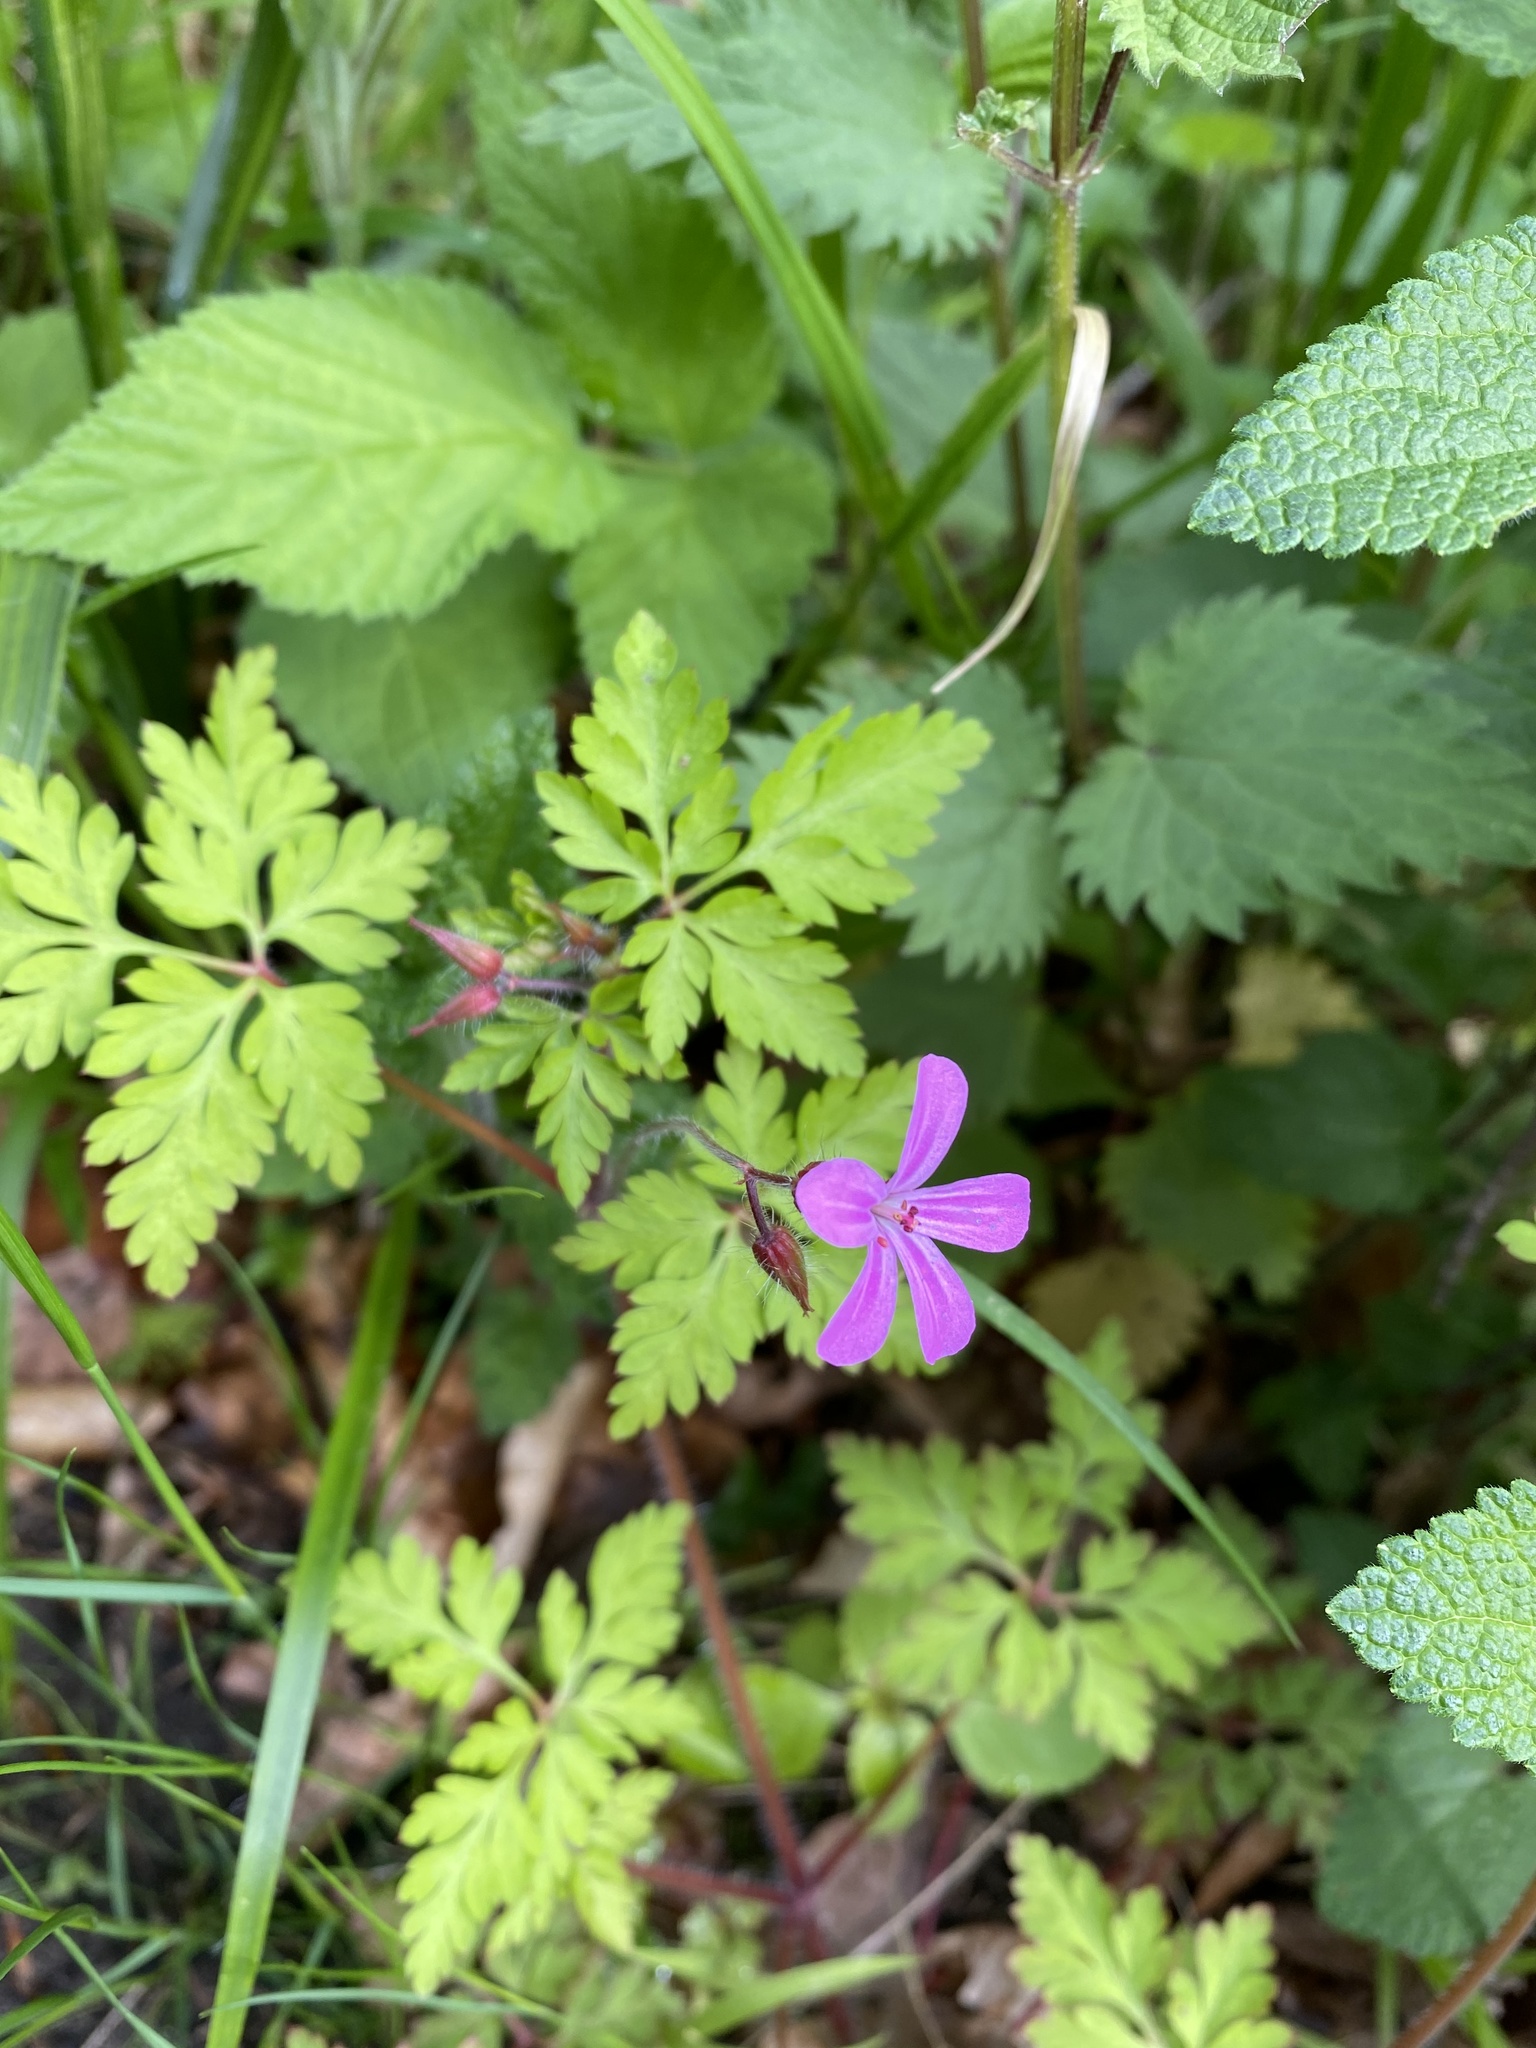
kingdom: Plantae
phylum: Tracheophyta
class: Magnoliopsida
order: Geraniales
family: Geraniaceae
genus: Geranium
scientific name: Geranium robertianum
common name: Herb-robert
